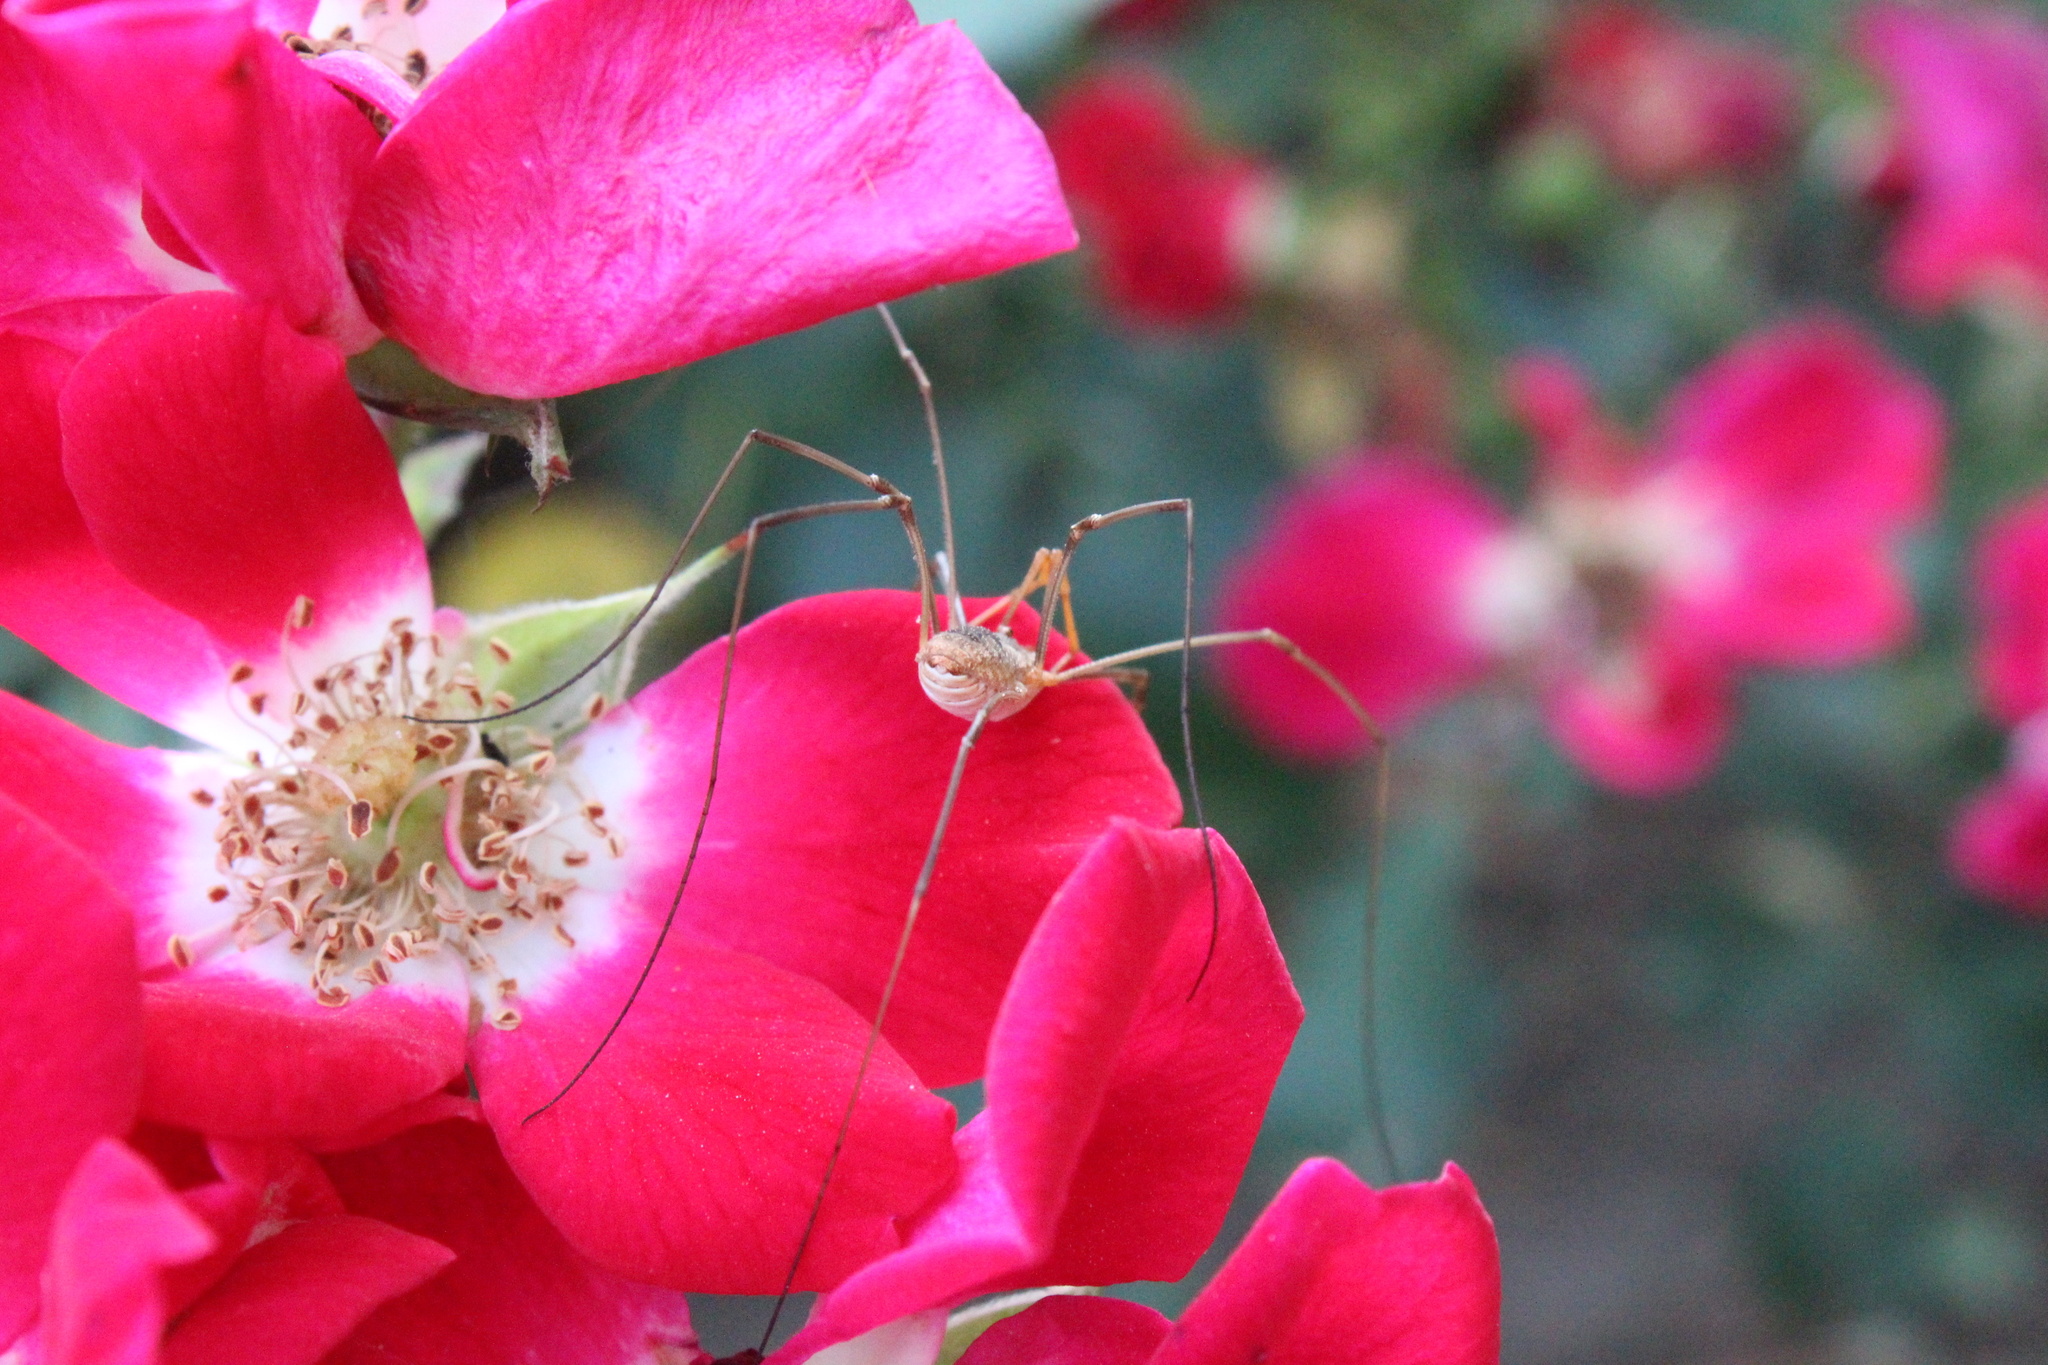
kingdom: Animalia
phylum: Arthropoda
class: Arachnida
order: Opiliones
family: Phalangiidae
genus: Phalangium
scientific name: Phalangium opilio
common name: Daddy longleg
